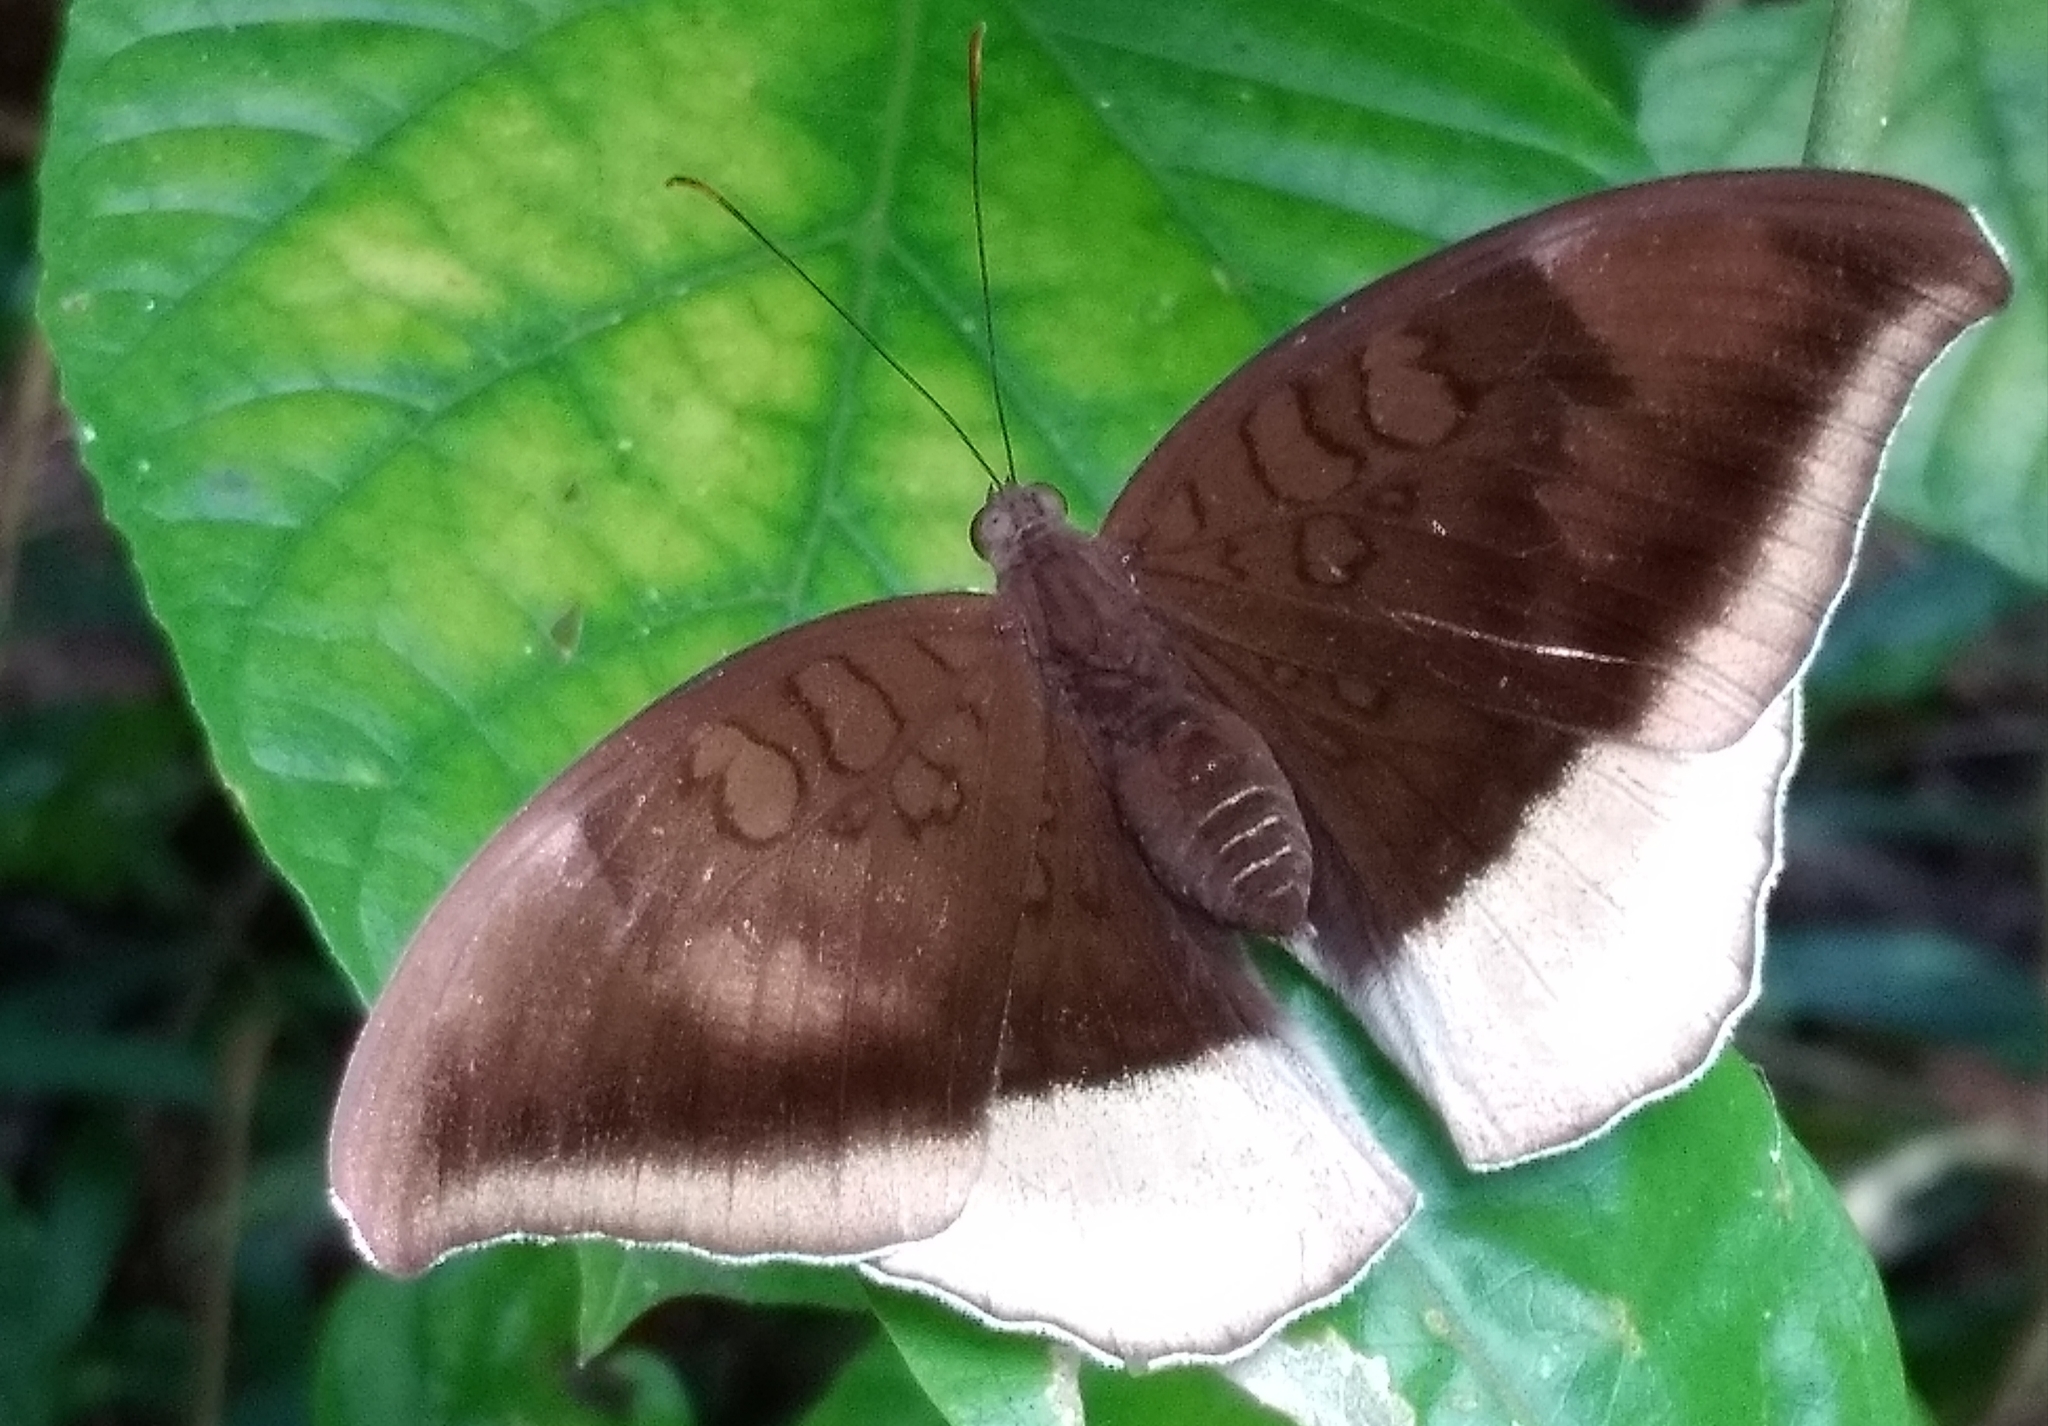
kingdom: Animalia
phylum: Arthropoda
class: Insecta
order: Lepidoptera
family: Nymphalidae
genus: Tanaecia
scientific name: Tanaecia lepidea
